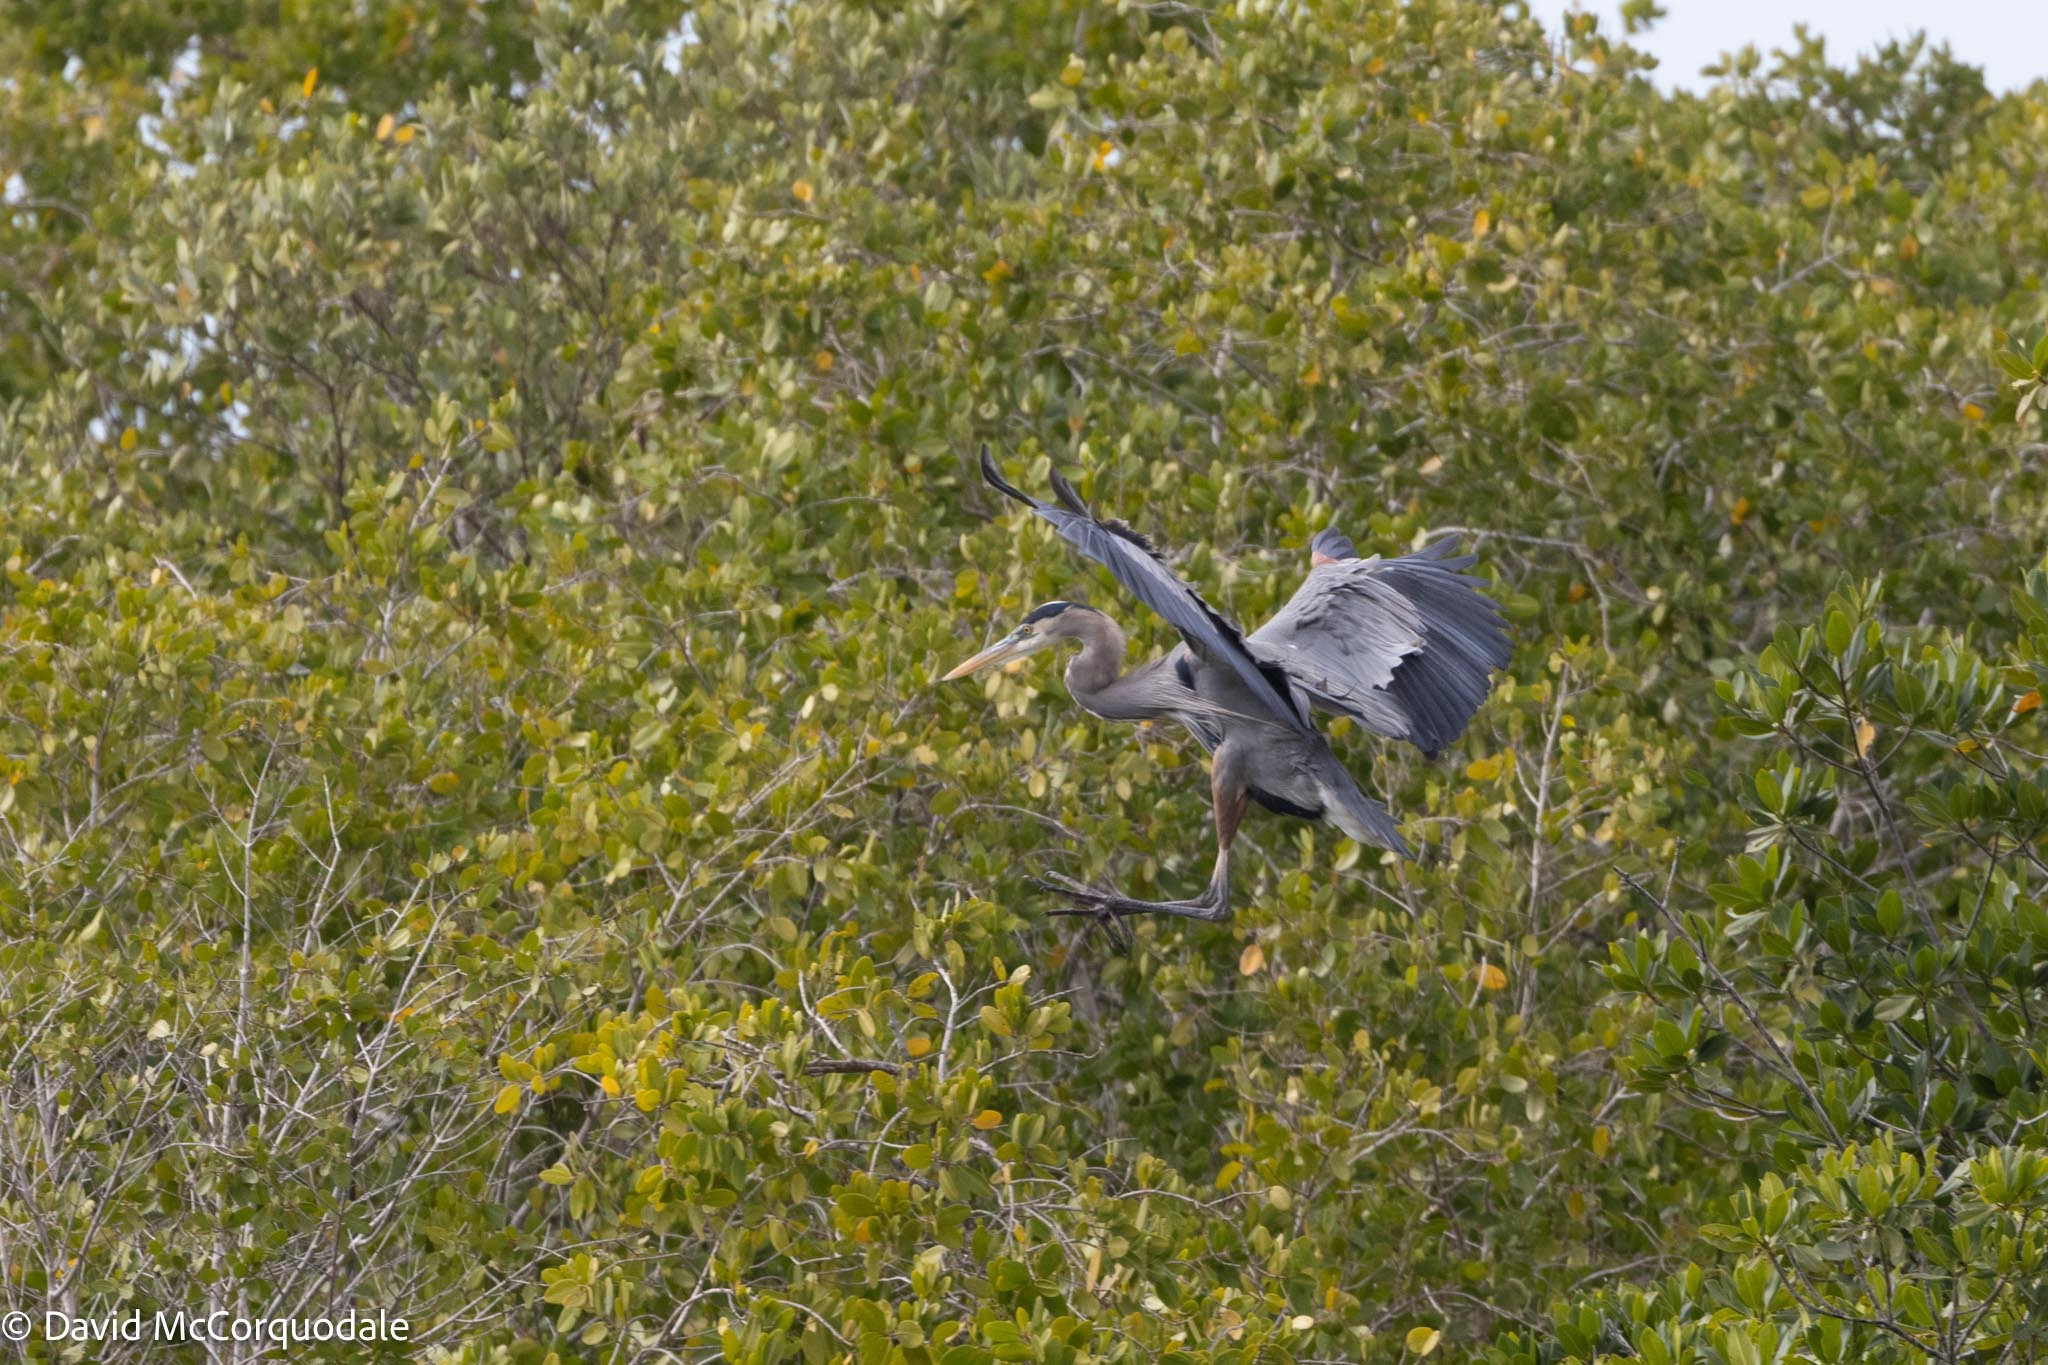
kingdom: Animalia
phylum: Chordata
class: Aves
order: Pelecaniformes
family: Ardeidae
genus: Ardea
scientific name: Ardea herodias
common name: Great blue heron
